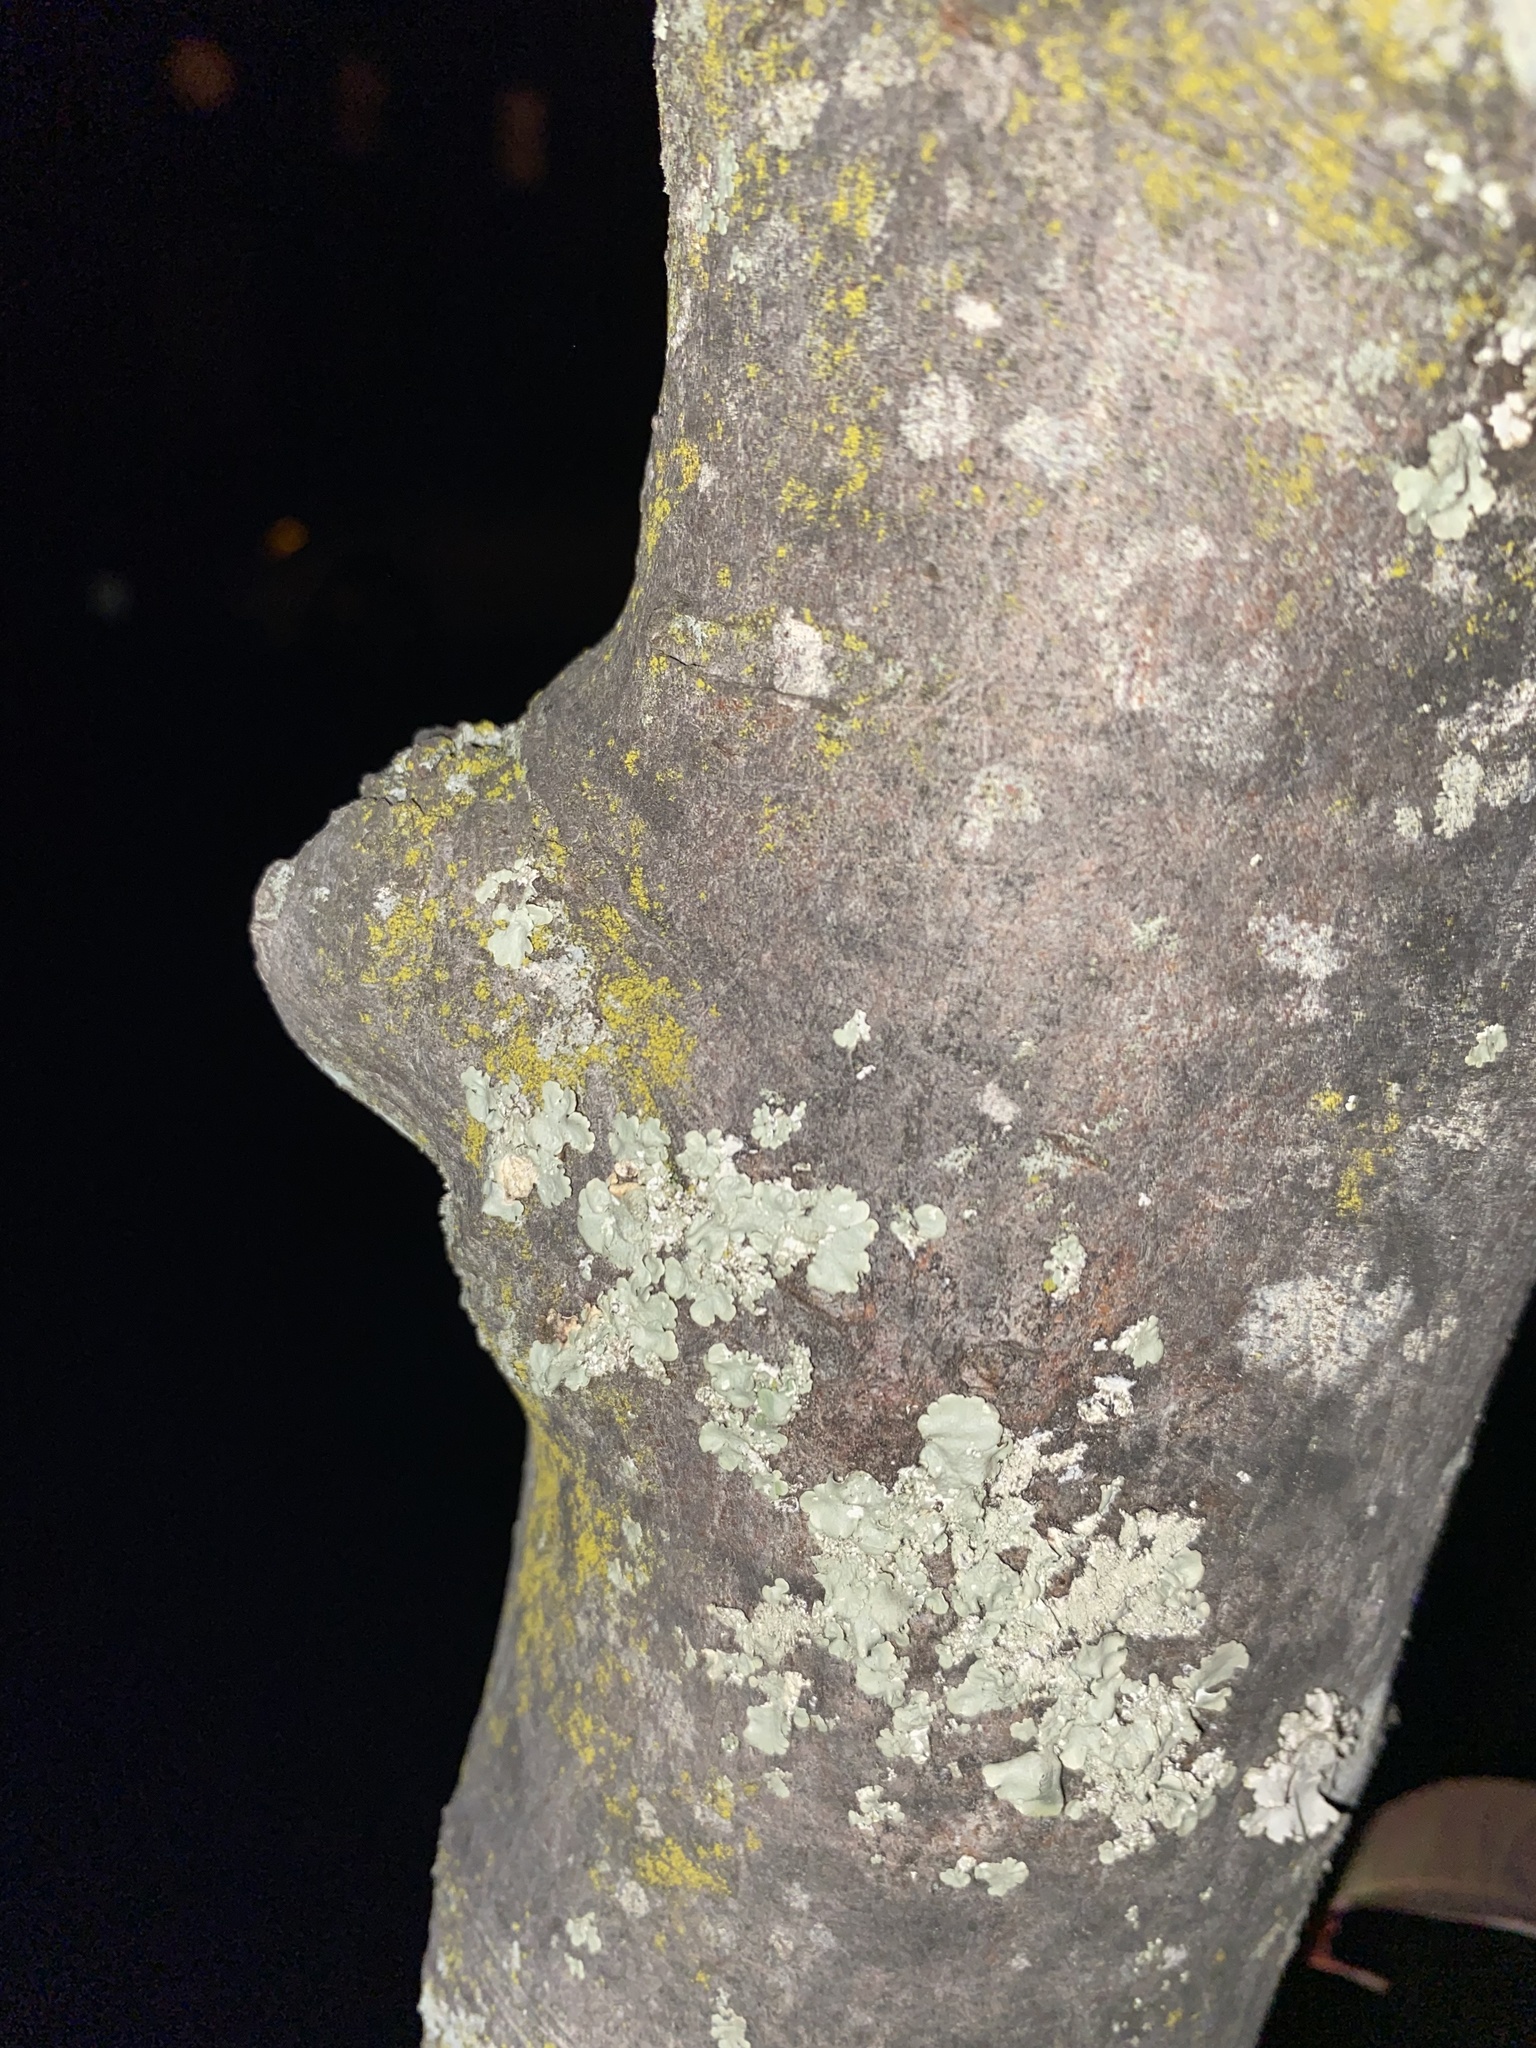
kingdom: Fungi
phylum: Ascomycota
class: Candelariomycetes
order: Candelariales
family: Candelariaceae
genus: Candelaria
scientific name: Candelaria concolor
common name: Candleflame lichen
